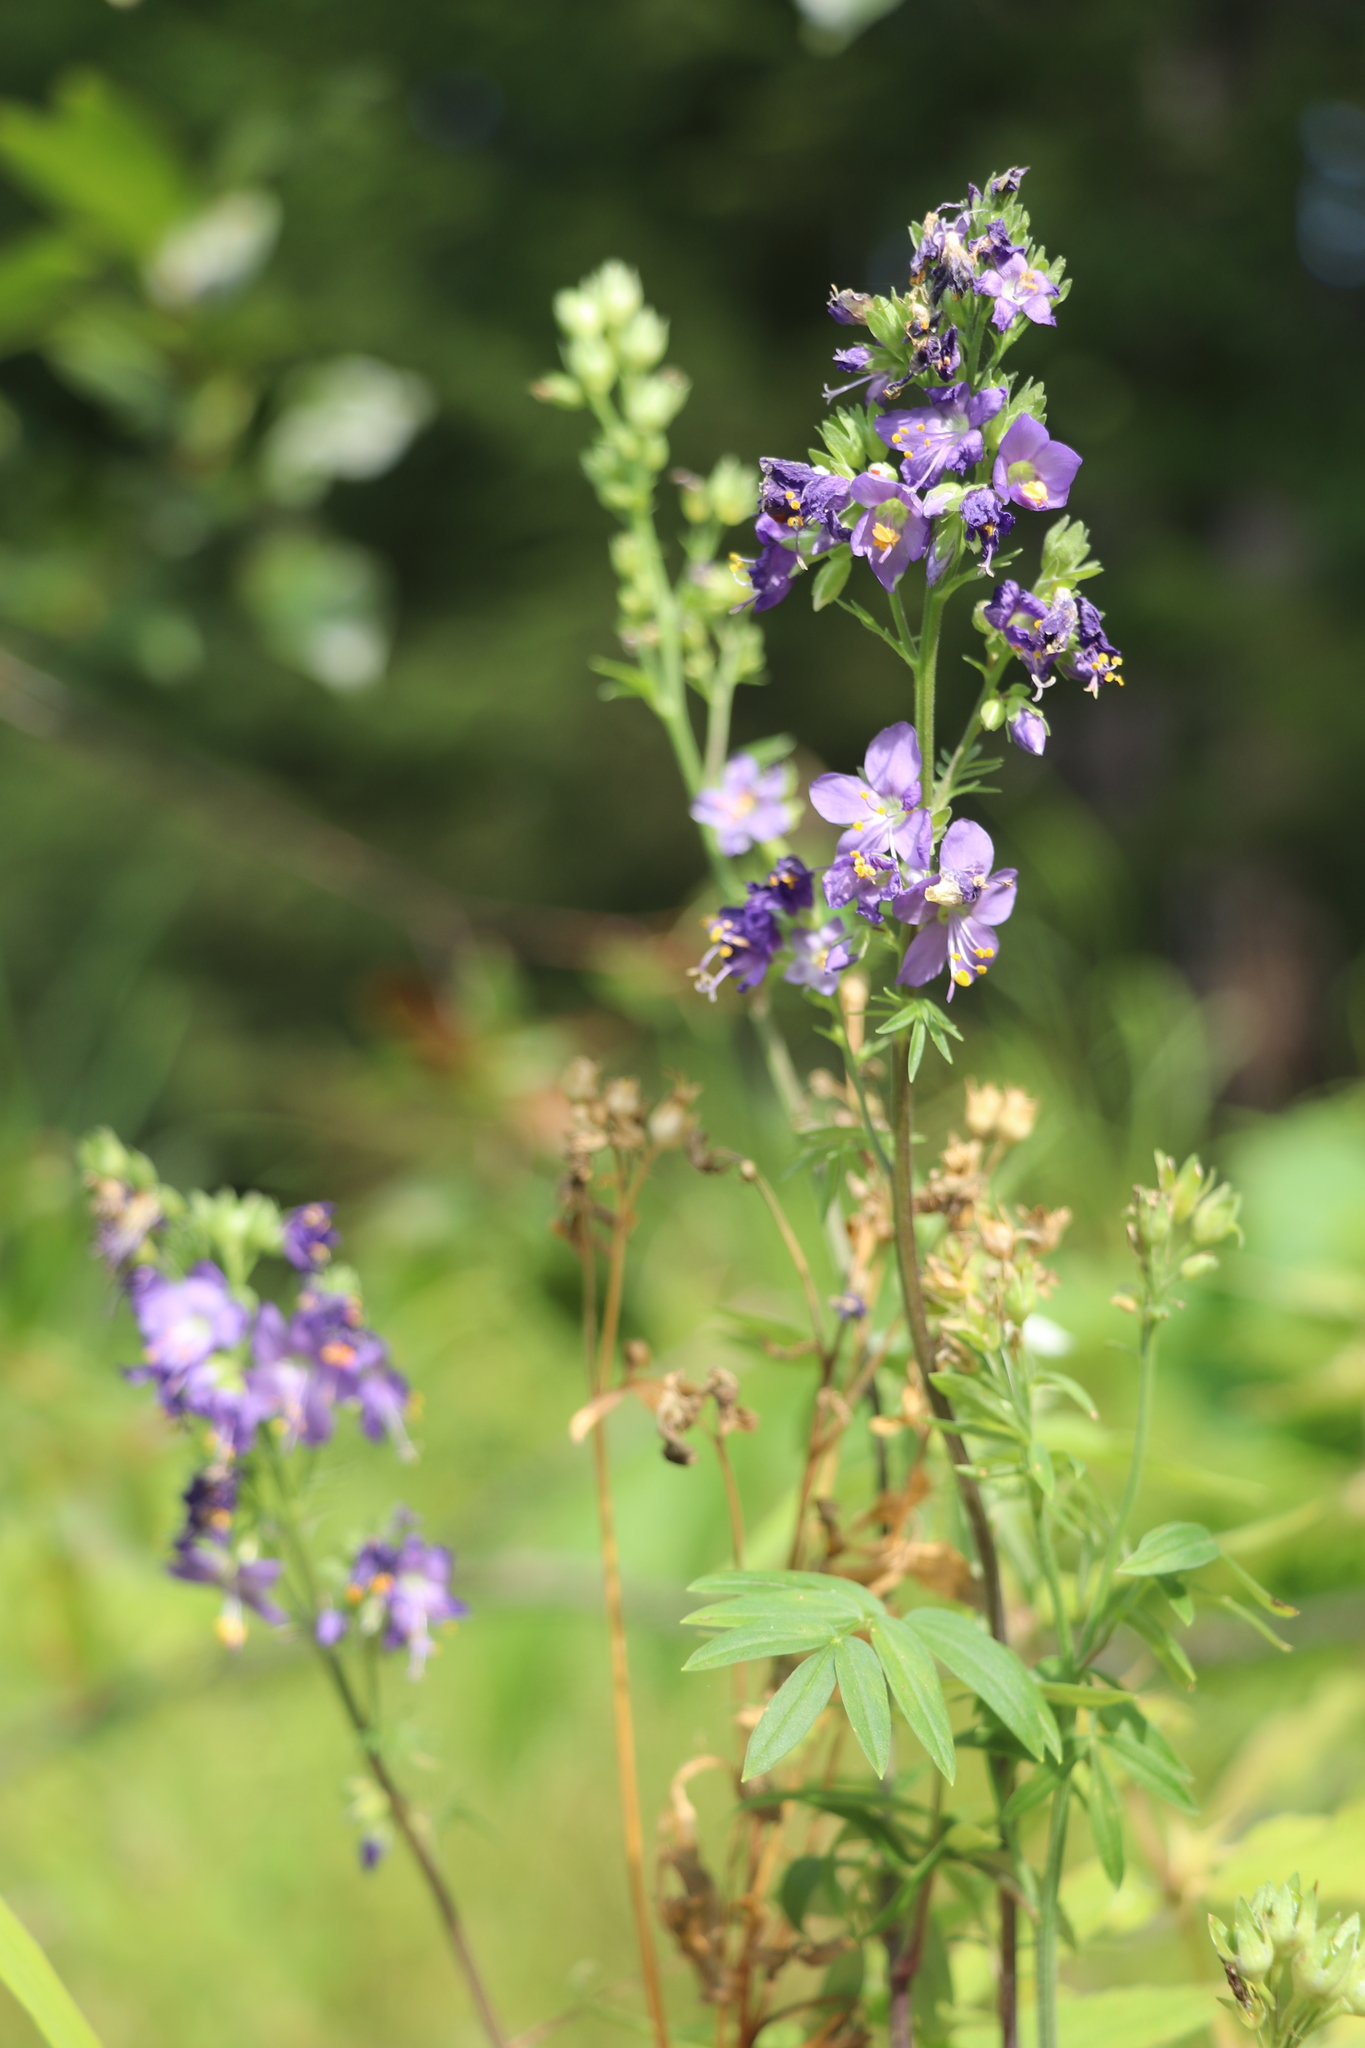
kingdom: Plantae
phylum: Tracheophyta
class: Magnoliopsida
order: Ericales
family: Polemoniaceae
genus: Polemonium
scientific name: Polemonium caeruleum
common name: Jacob's-ladder
